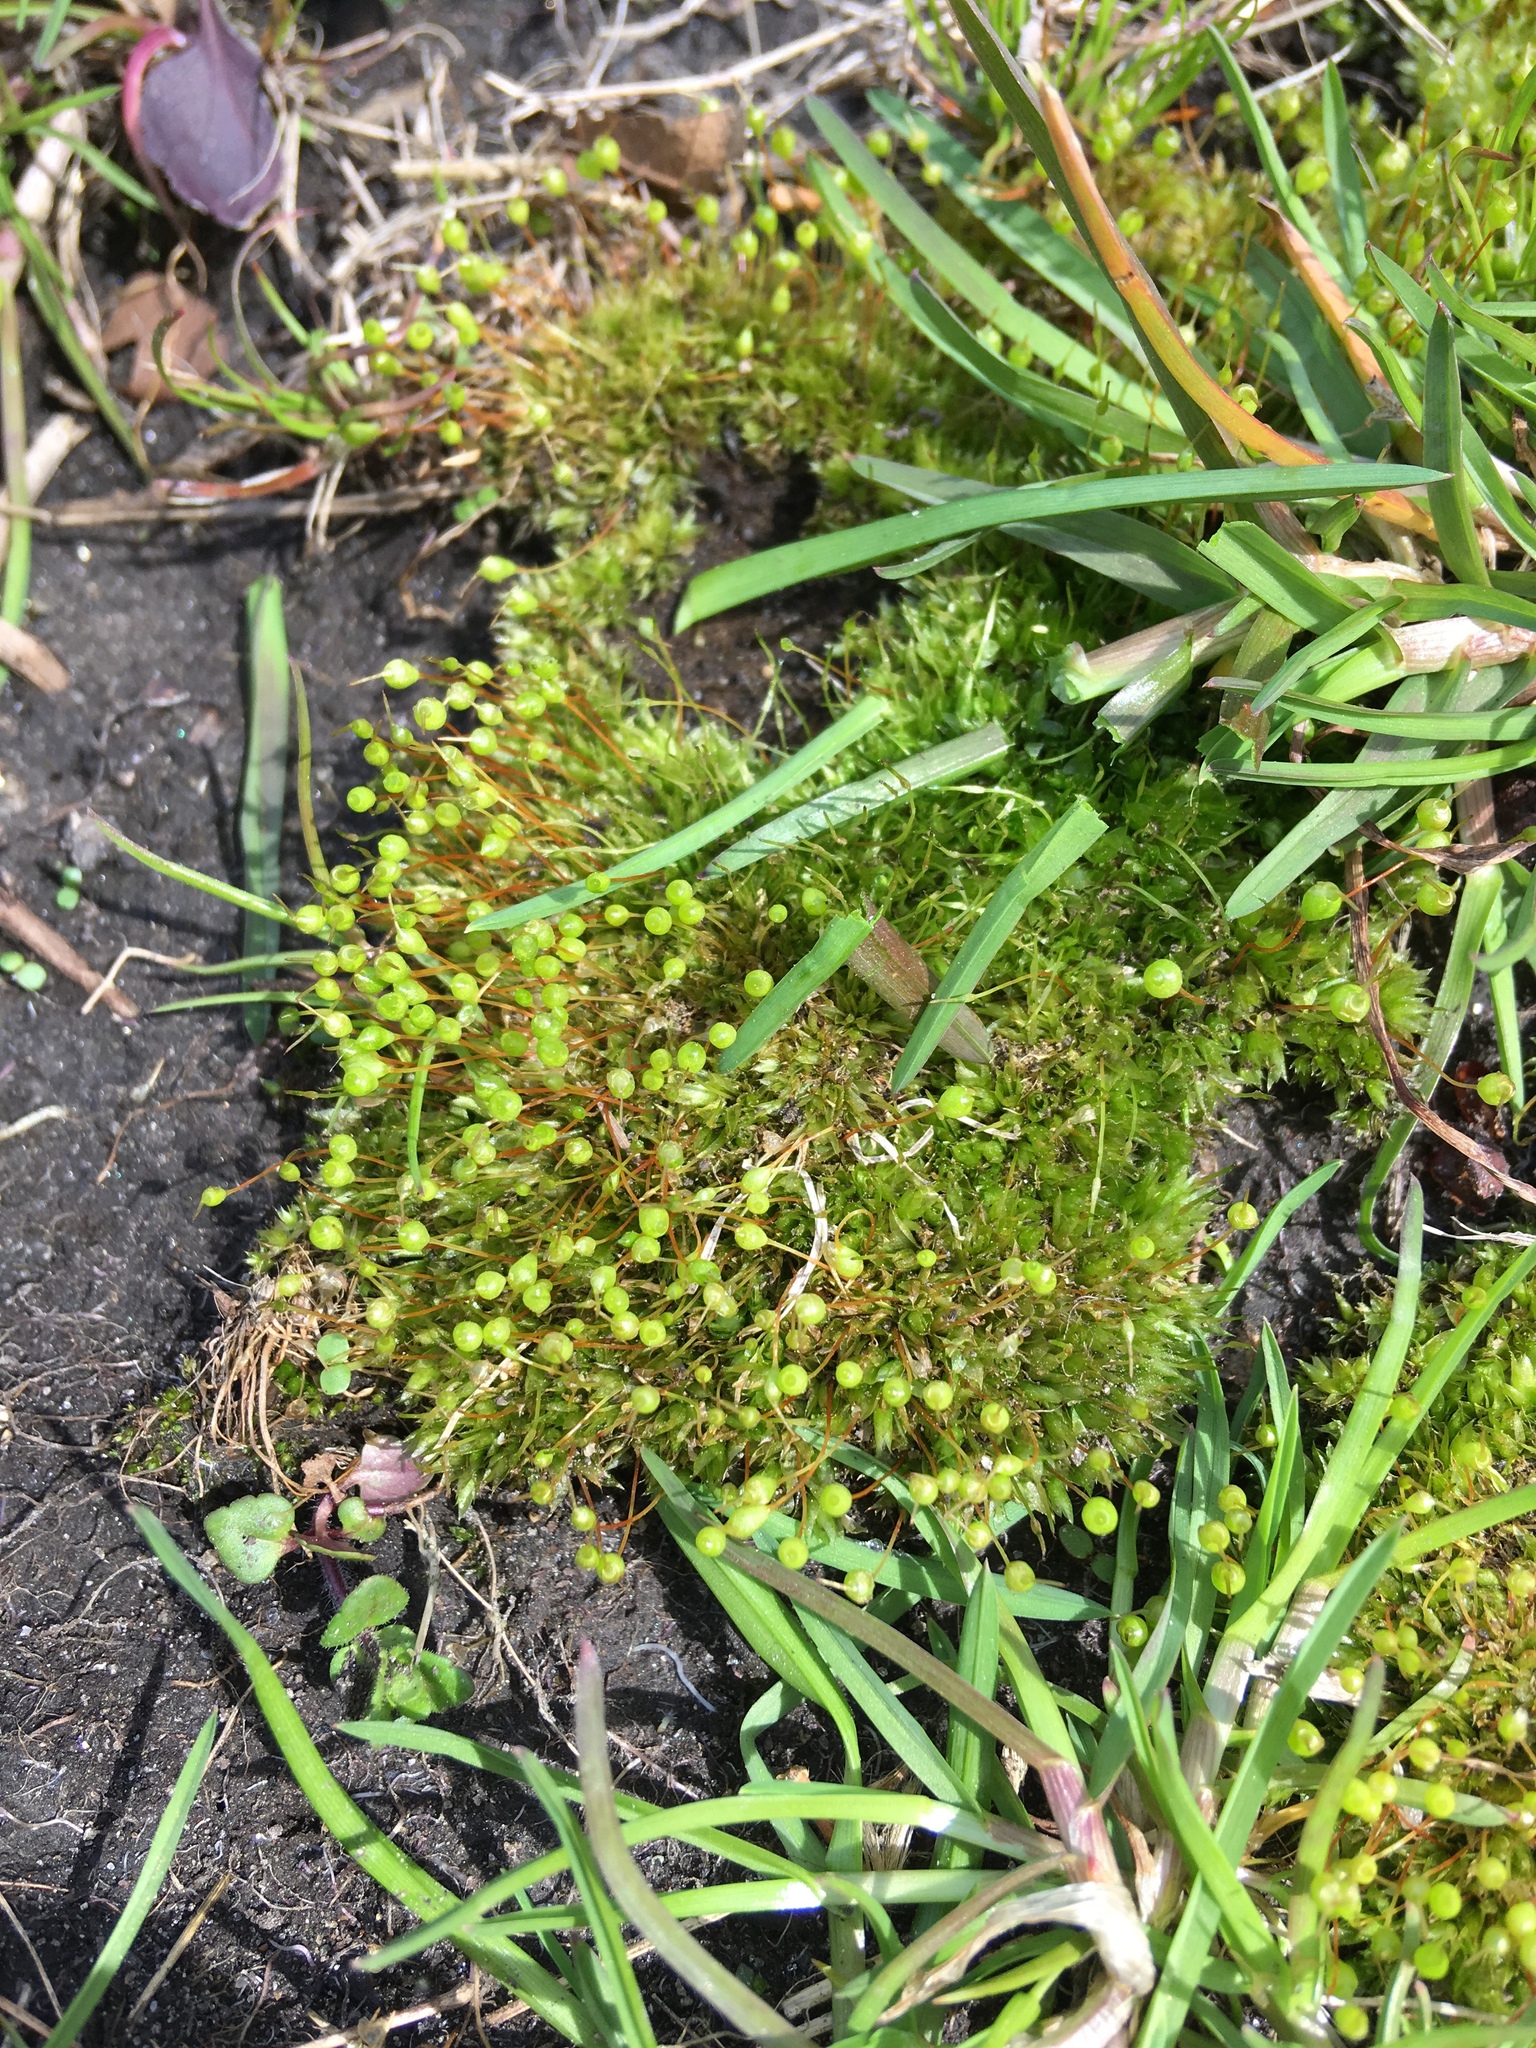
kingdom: Plantae
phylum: Bryophyta
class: Bryopsida
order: Funariales
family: Funariaceae
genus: Physcomitrium
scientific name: Physcomitrium pyriforme
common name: Common bladder-moss
